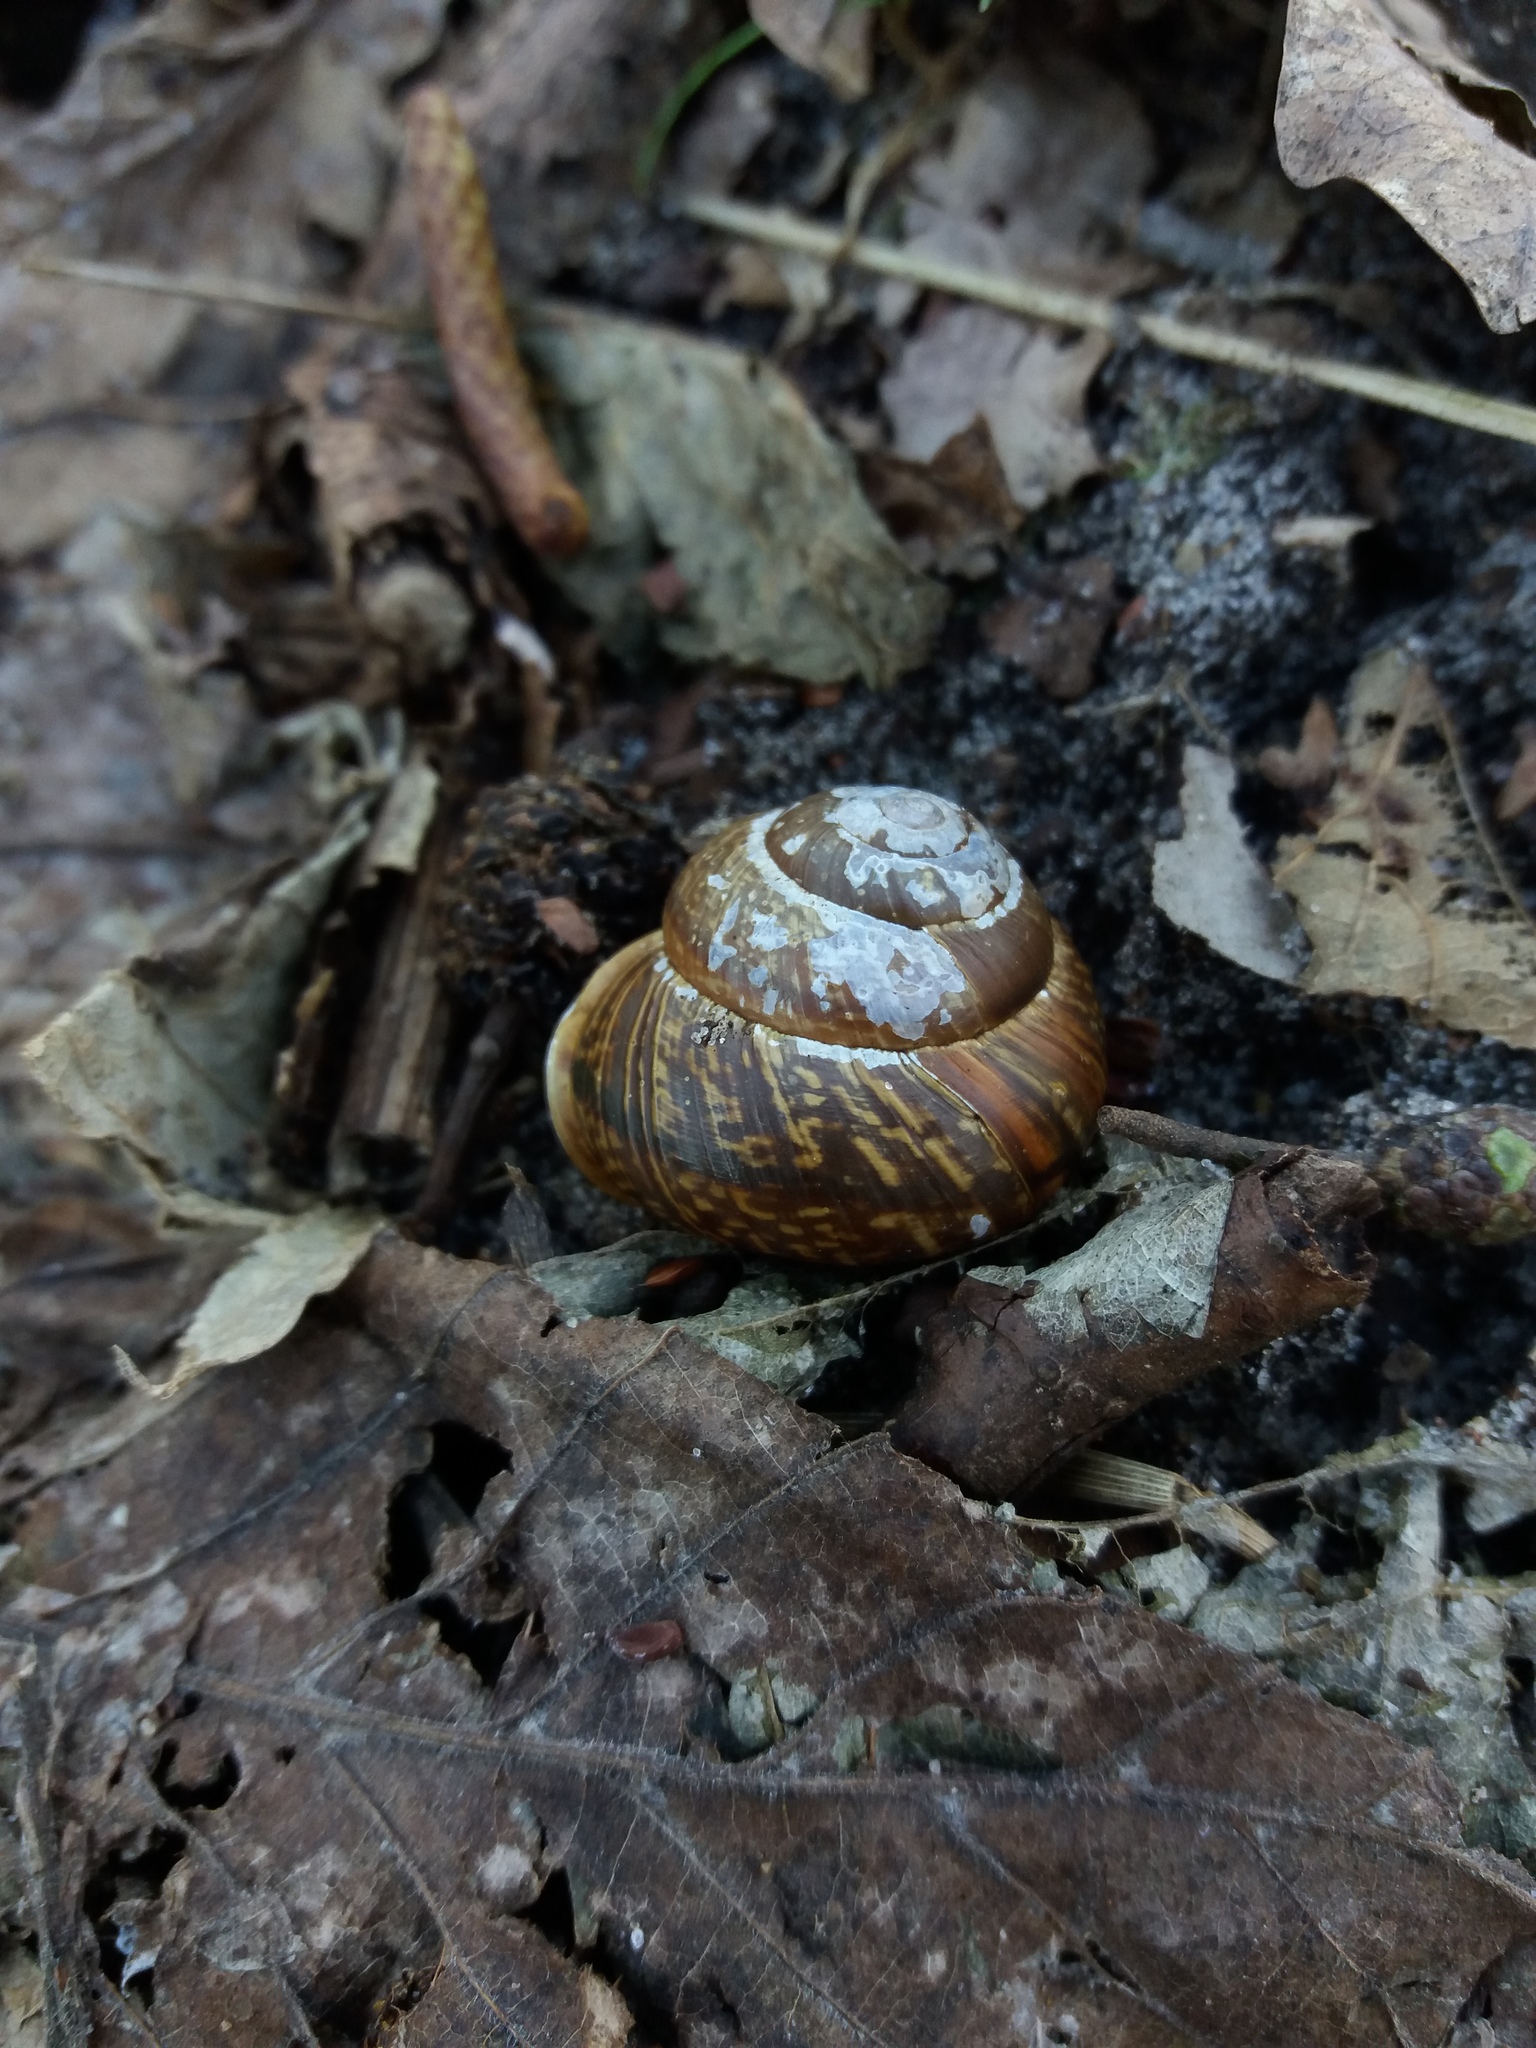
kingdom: Animalia
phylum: Mollusca
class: Gastropoda
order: Stylommatophora
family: Helicidae
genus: Arianta
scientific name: Arianta arbustorum
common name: Copse snail
